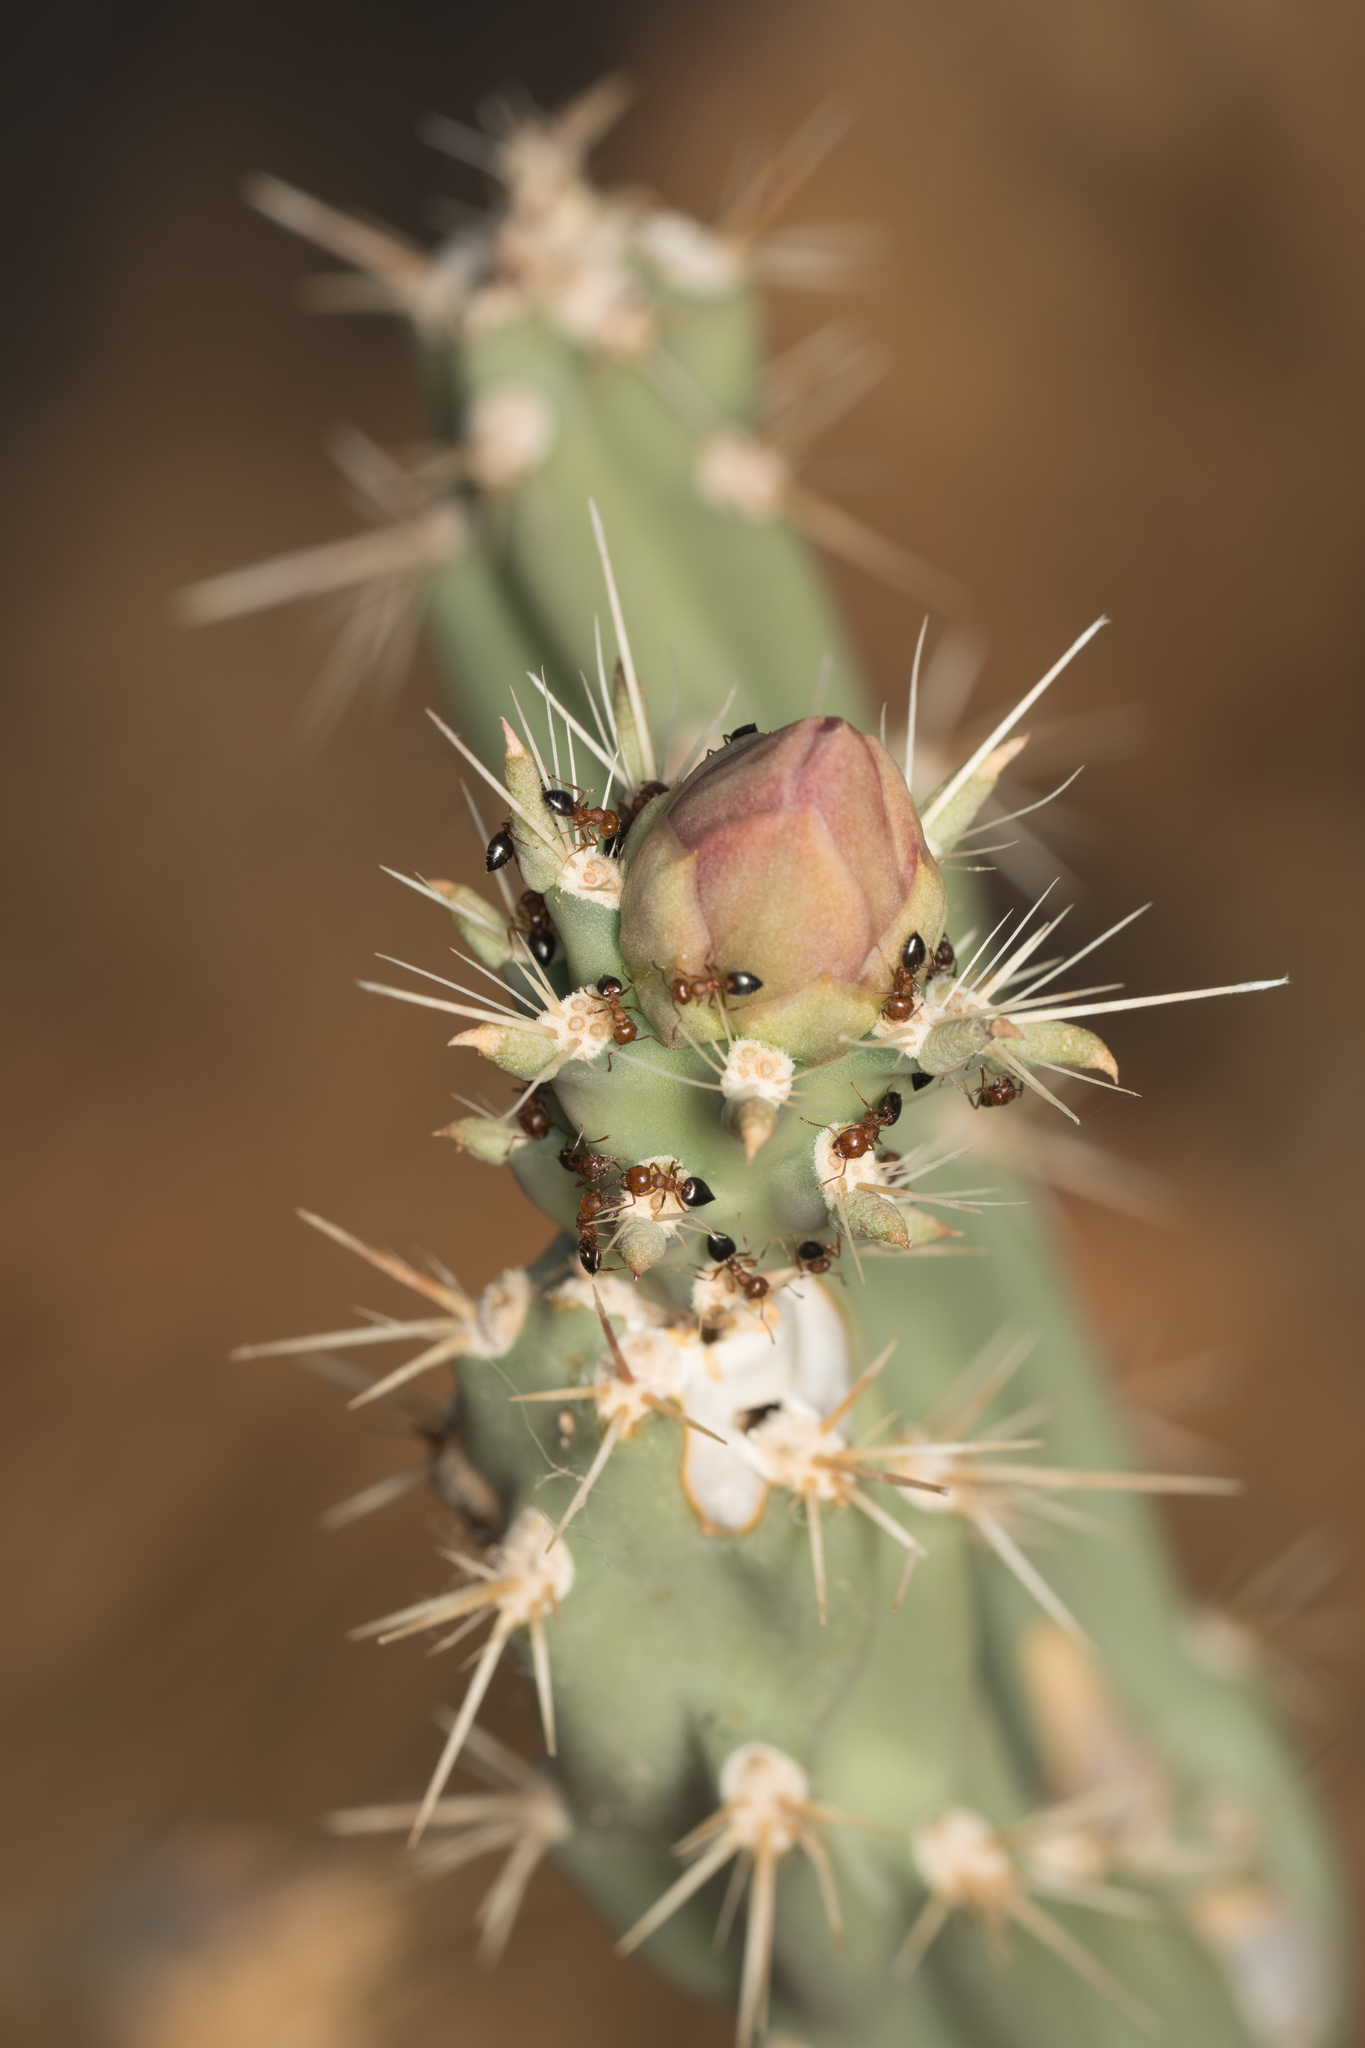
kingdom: Animalia
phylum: Arthropoda
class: Insecta
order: Hymenoptera
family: Formicidae
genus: Crematogaster
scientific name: Crematogaster opuntiae
